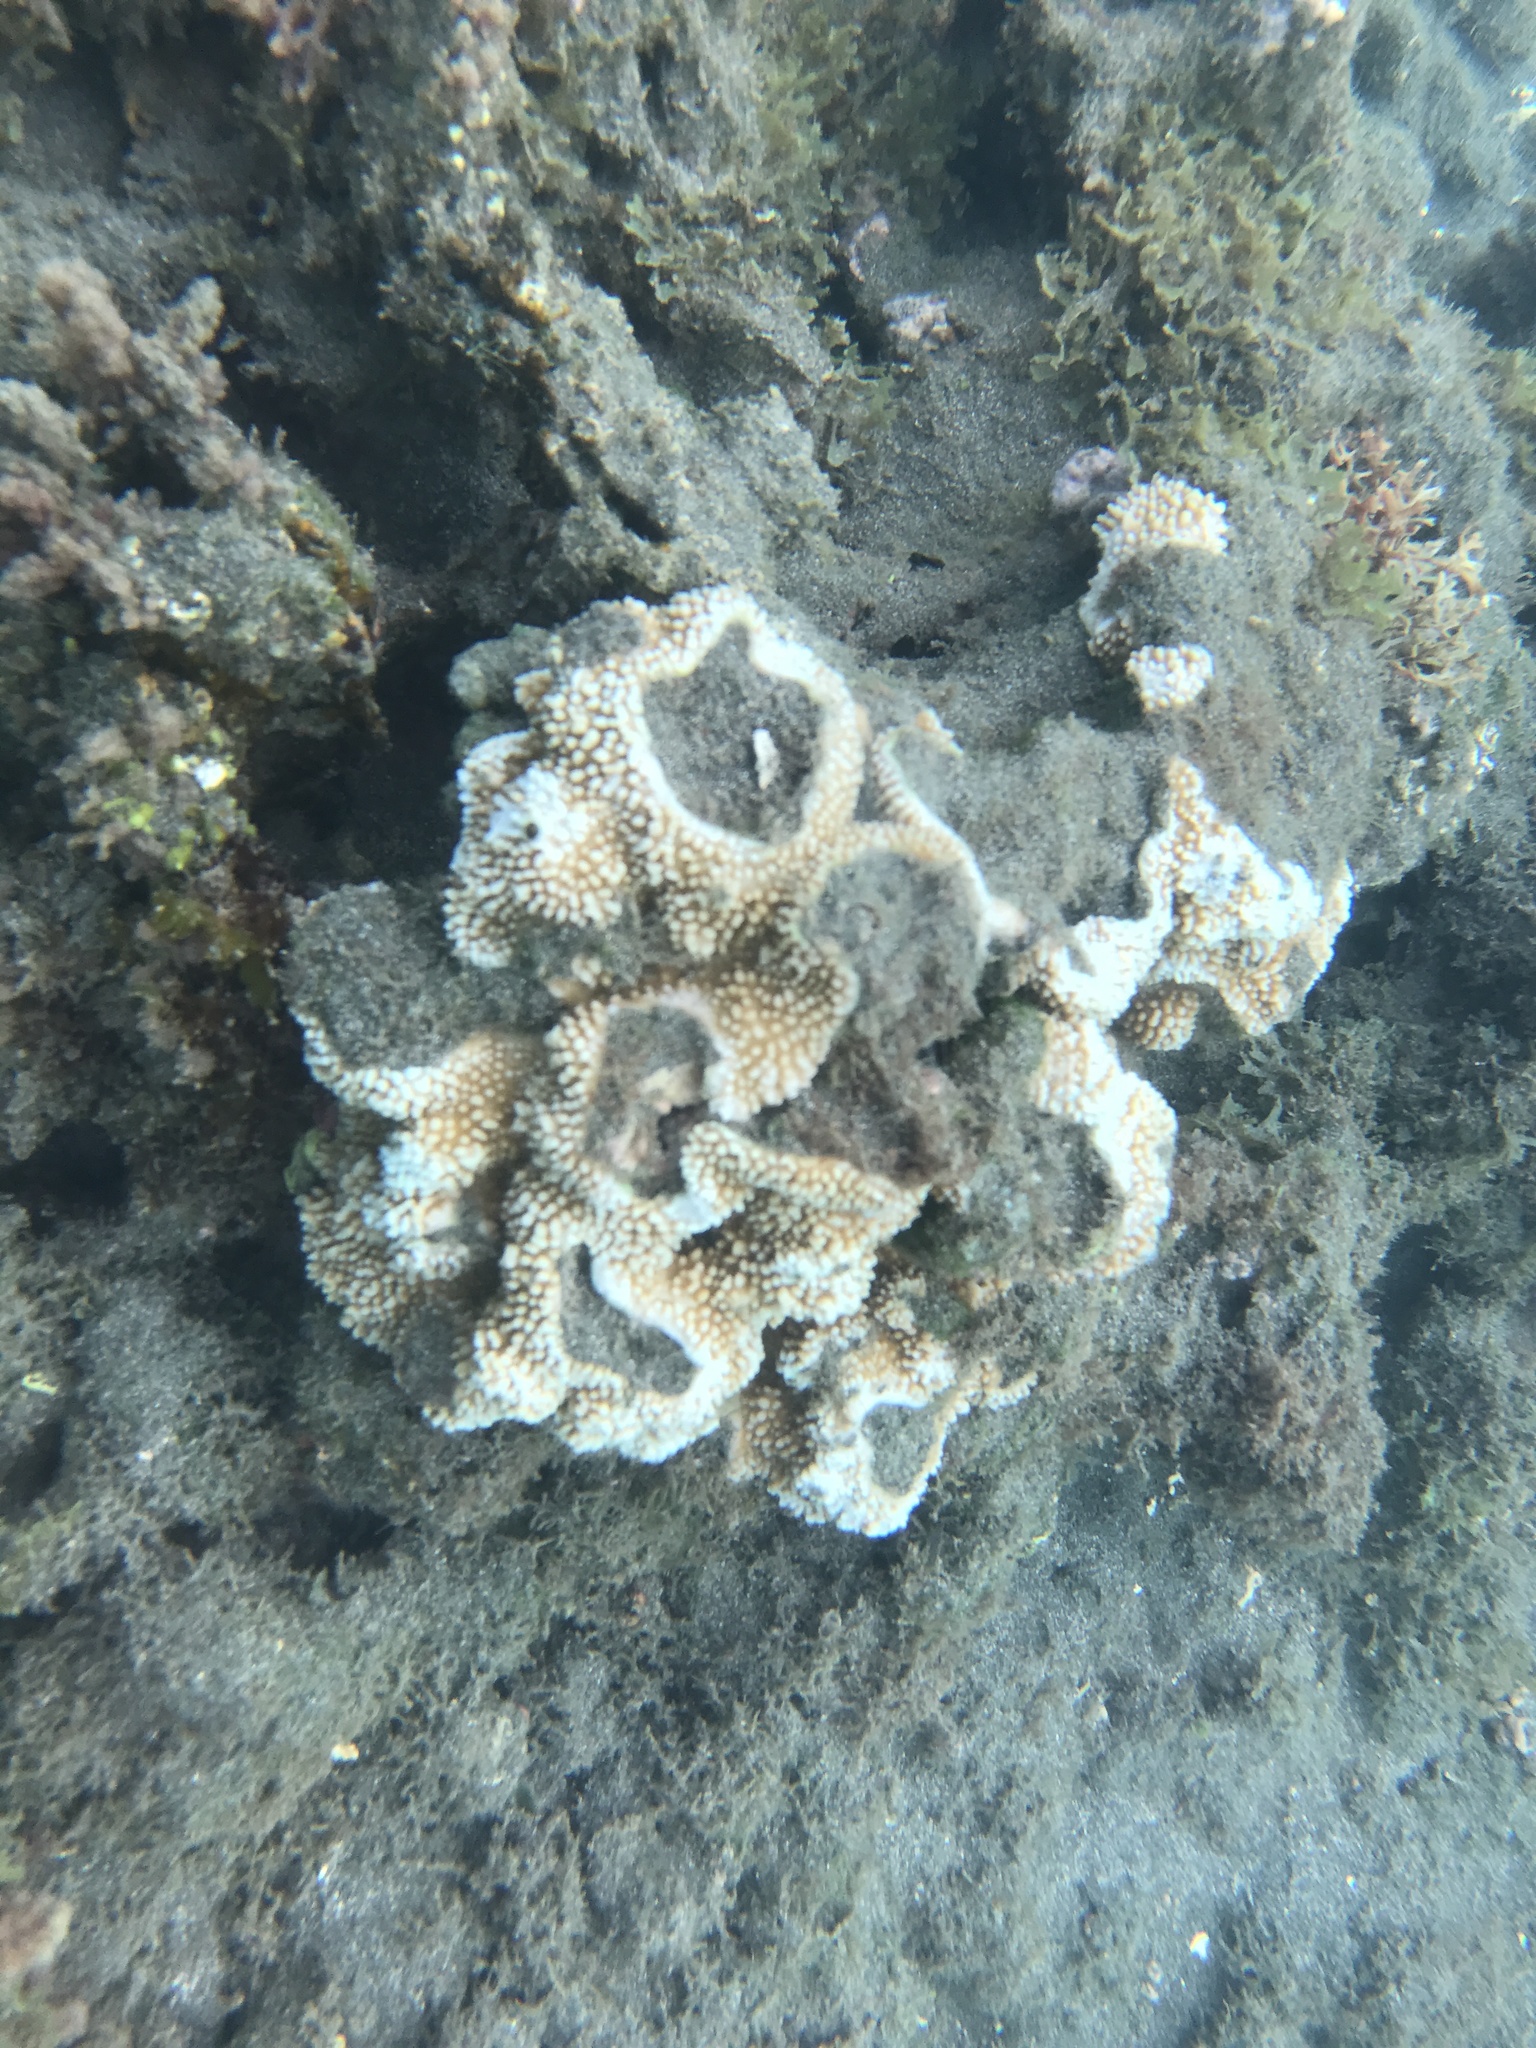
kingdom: Animalia
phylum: Cnidaria
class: Anthozoa
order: Scleractinia
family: Acroporidae
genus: Montipora
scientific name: Montipora capitata
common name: Pore coral
